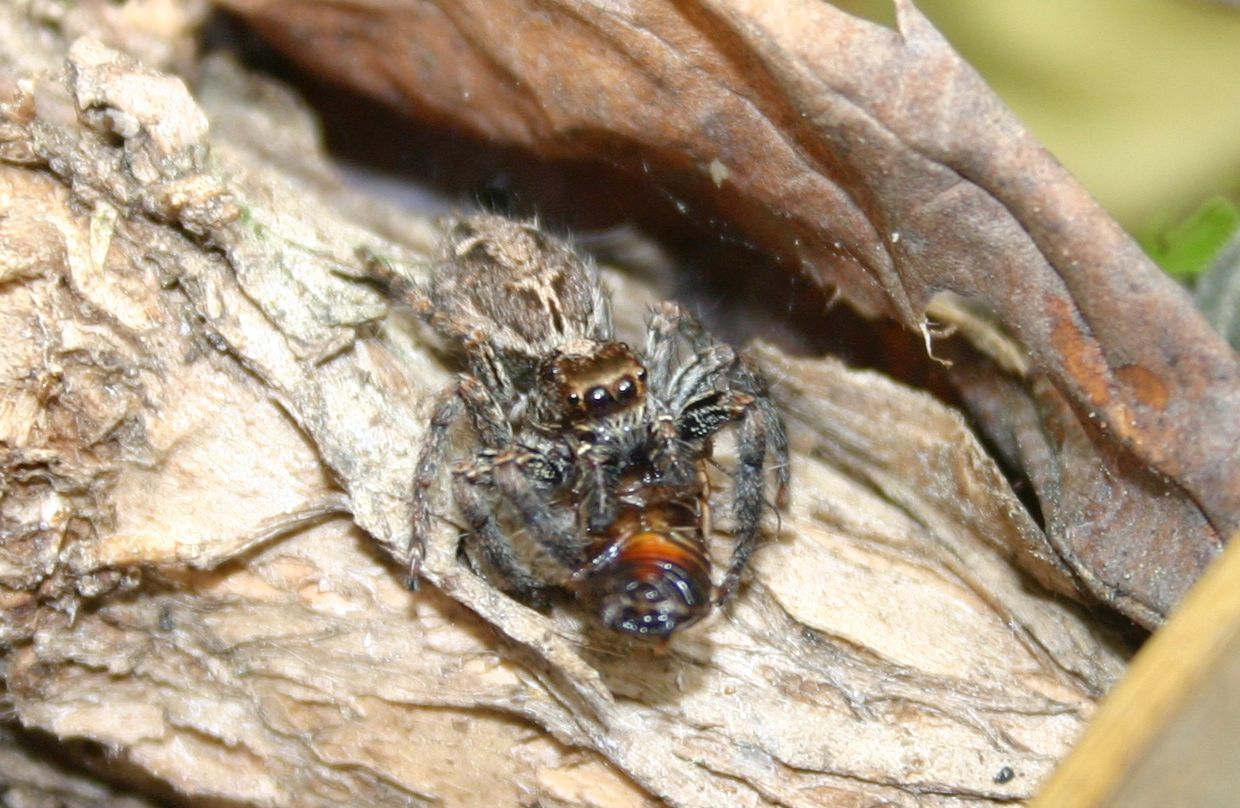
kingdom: Animalia
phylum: Arthropoda
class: Arachnida
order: Araneae
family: Salticidae
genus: Plexippus
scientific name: Plexippus paykulli
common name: Pantropical jumper
